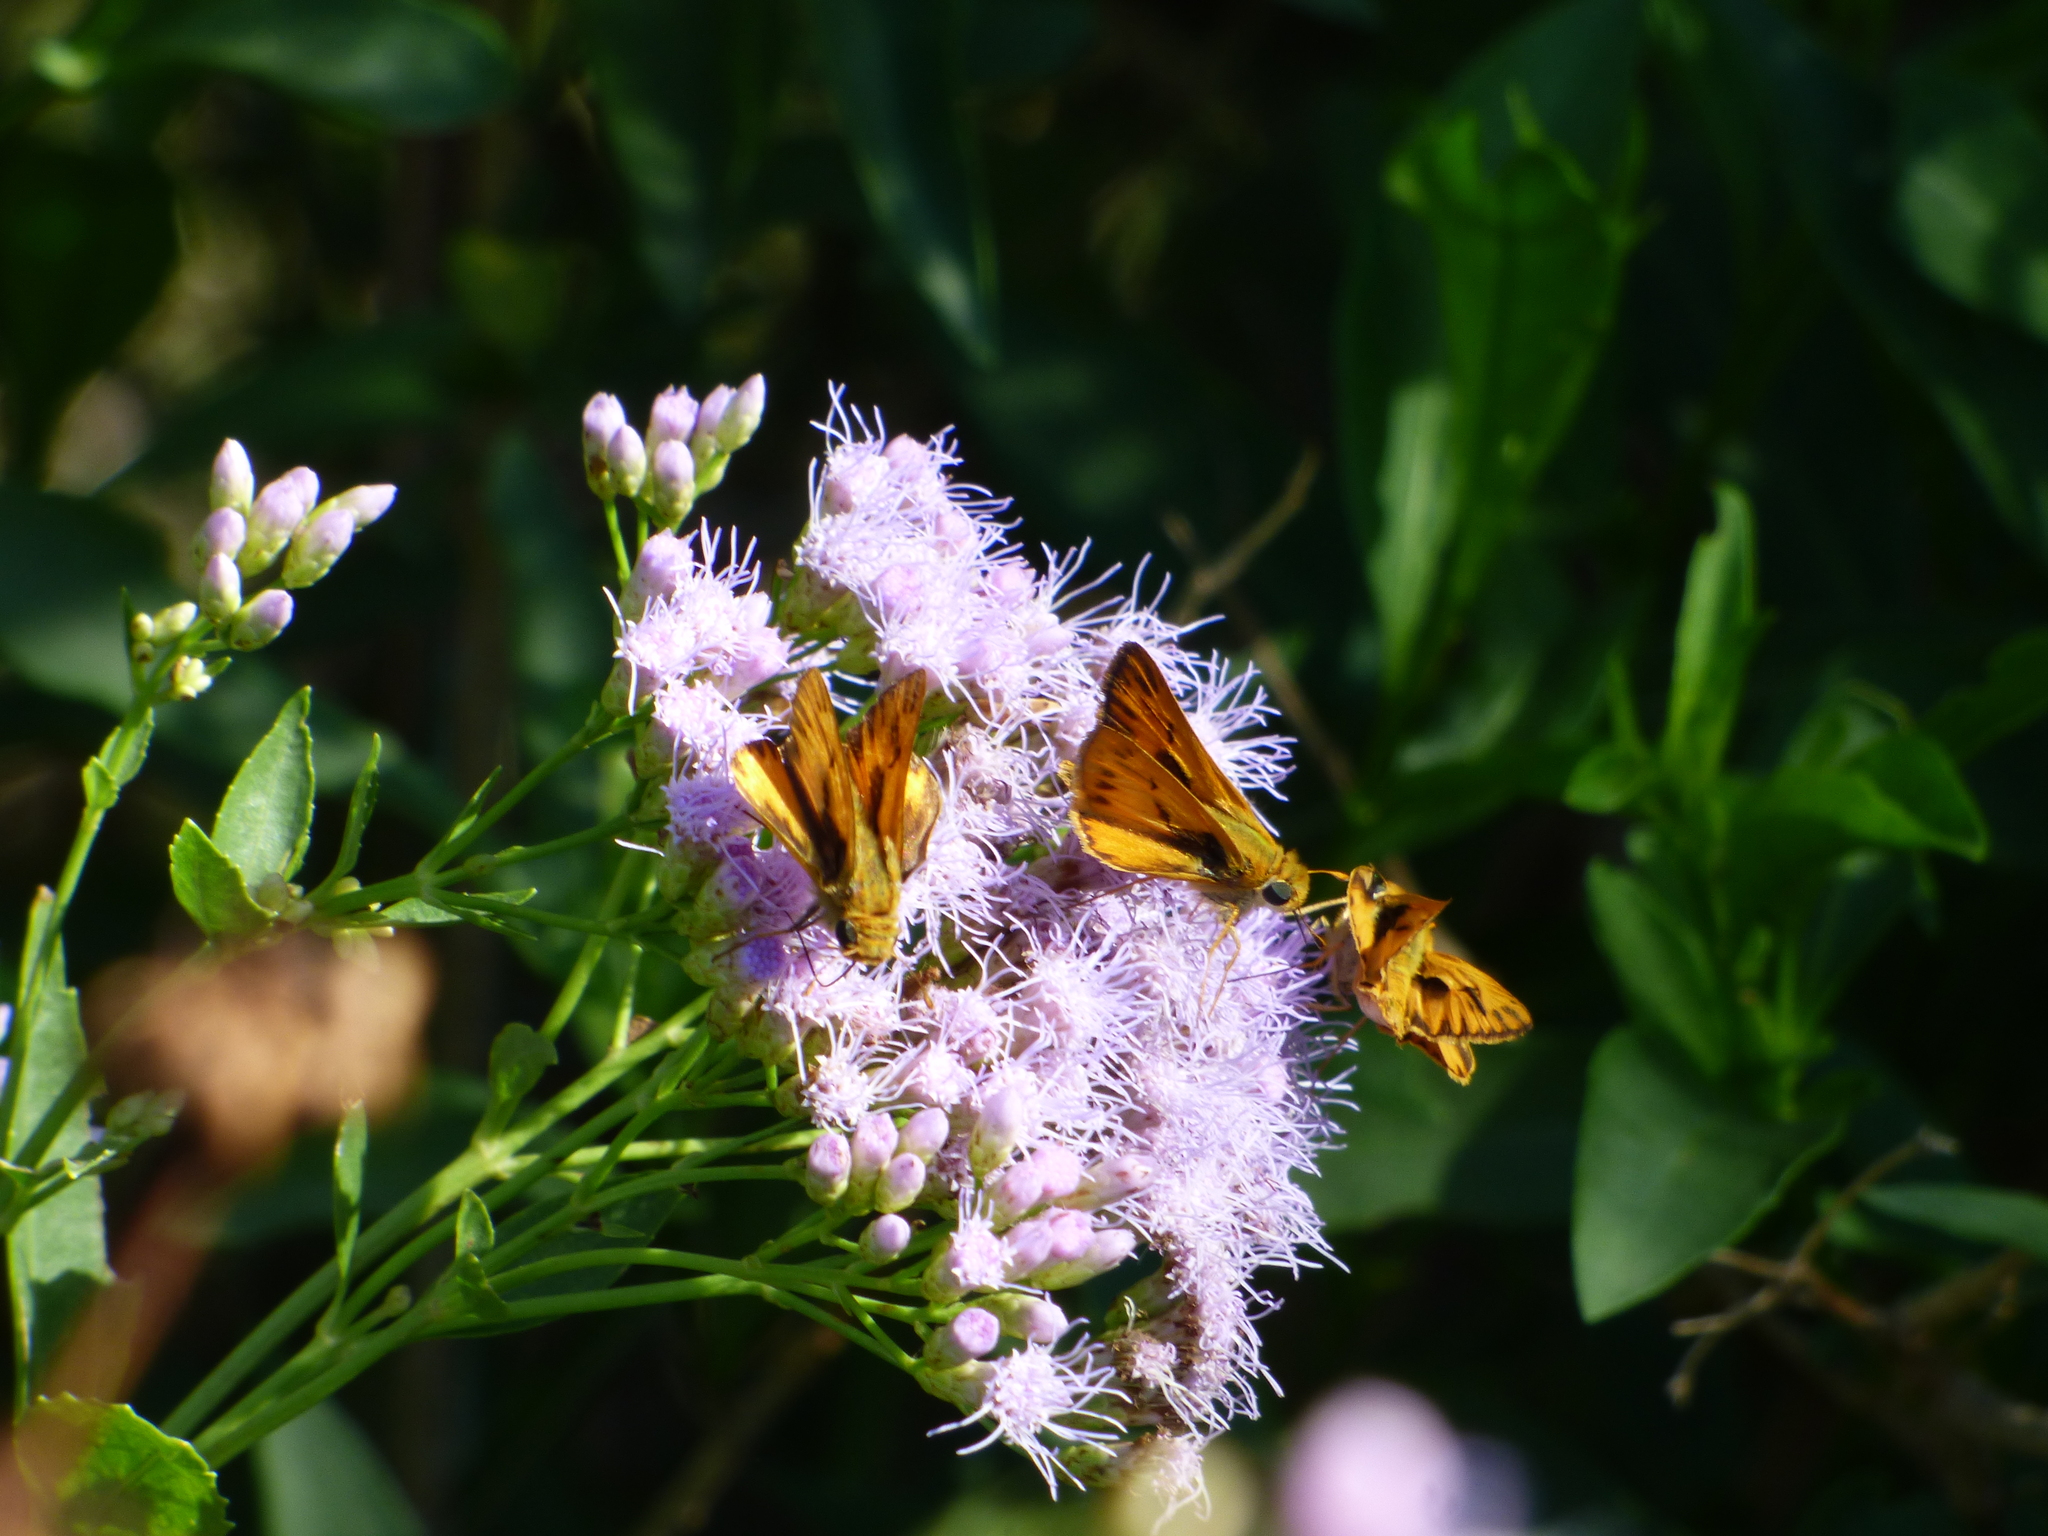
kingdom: Animalia
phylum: Arthropoda
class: Insecta
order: Lepidoptera
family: Hesperiidae
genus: Hylephila
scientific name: Hylephila phyleus
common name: Fiery skipper
